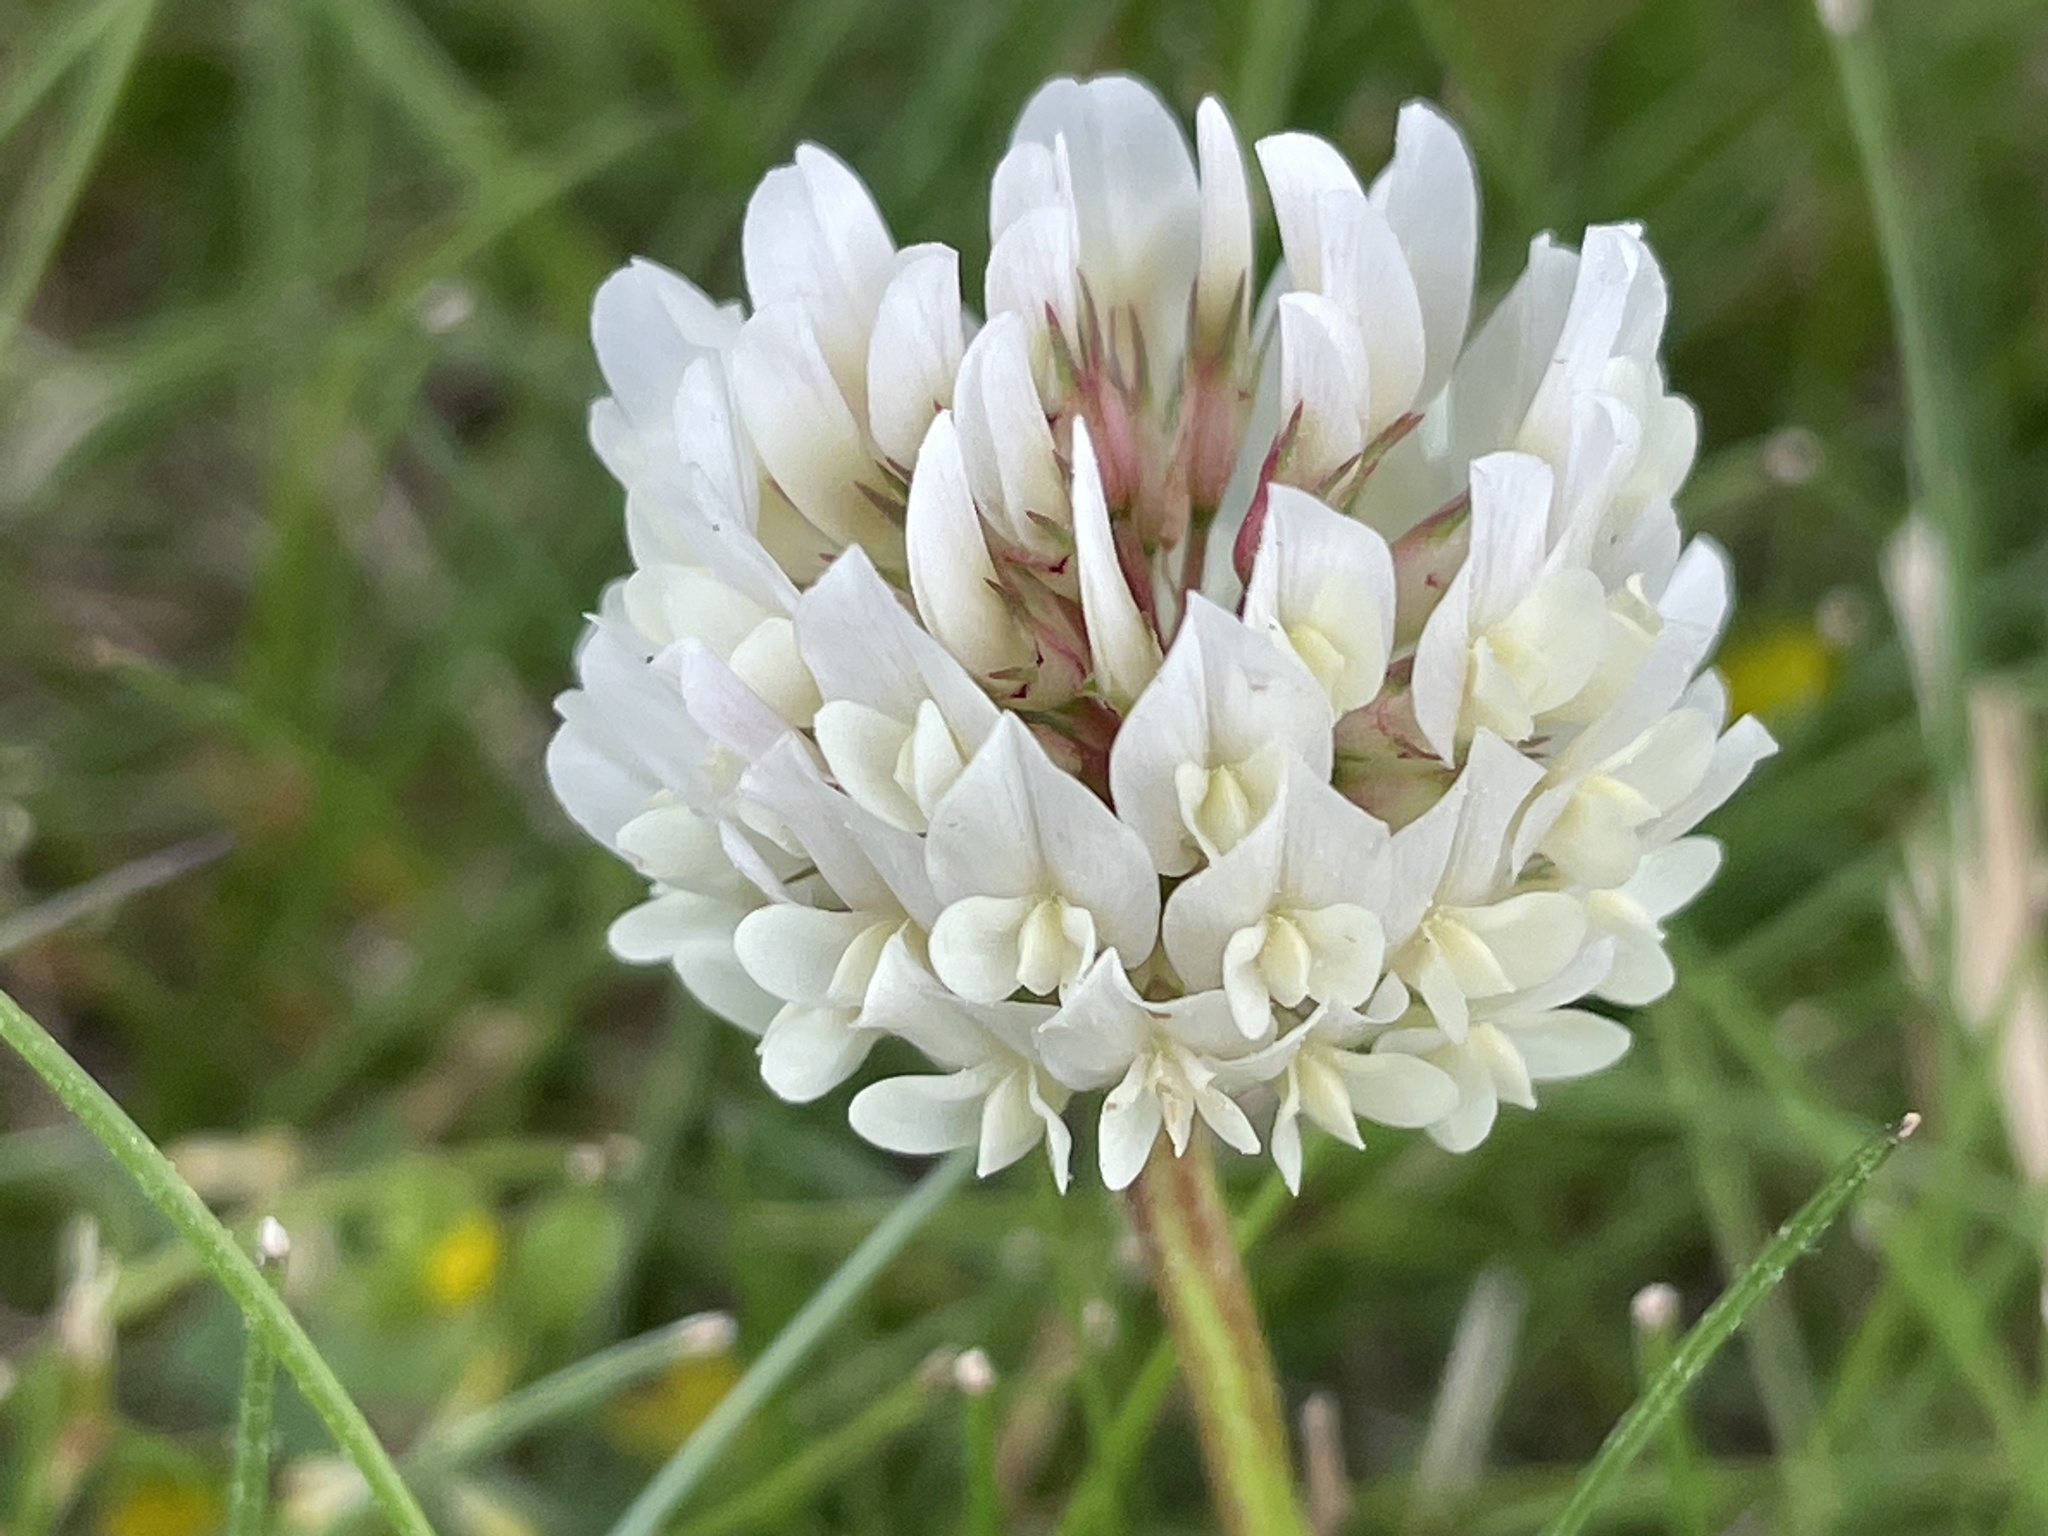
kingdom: Plantae
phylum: Tracheophyta
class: Magnoliopsida
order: Fabales
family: Fabaceae
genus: Trifolium
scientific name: Trifolium repens
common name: White clover
